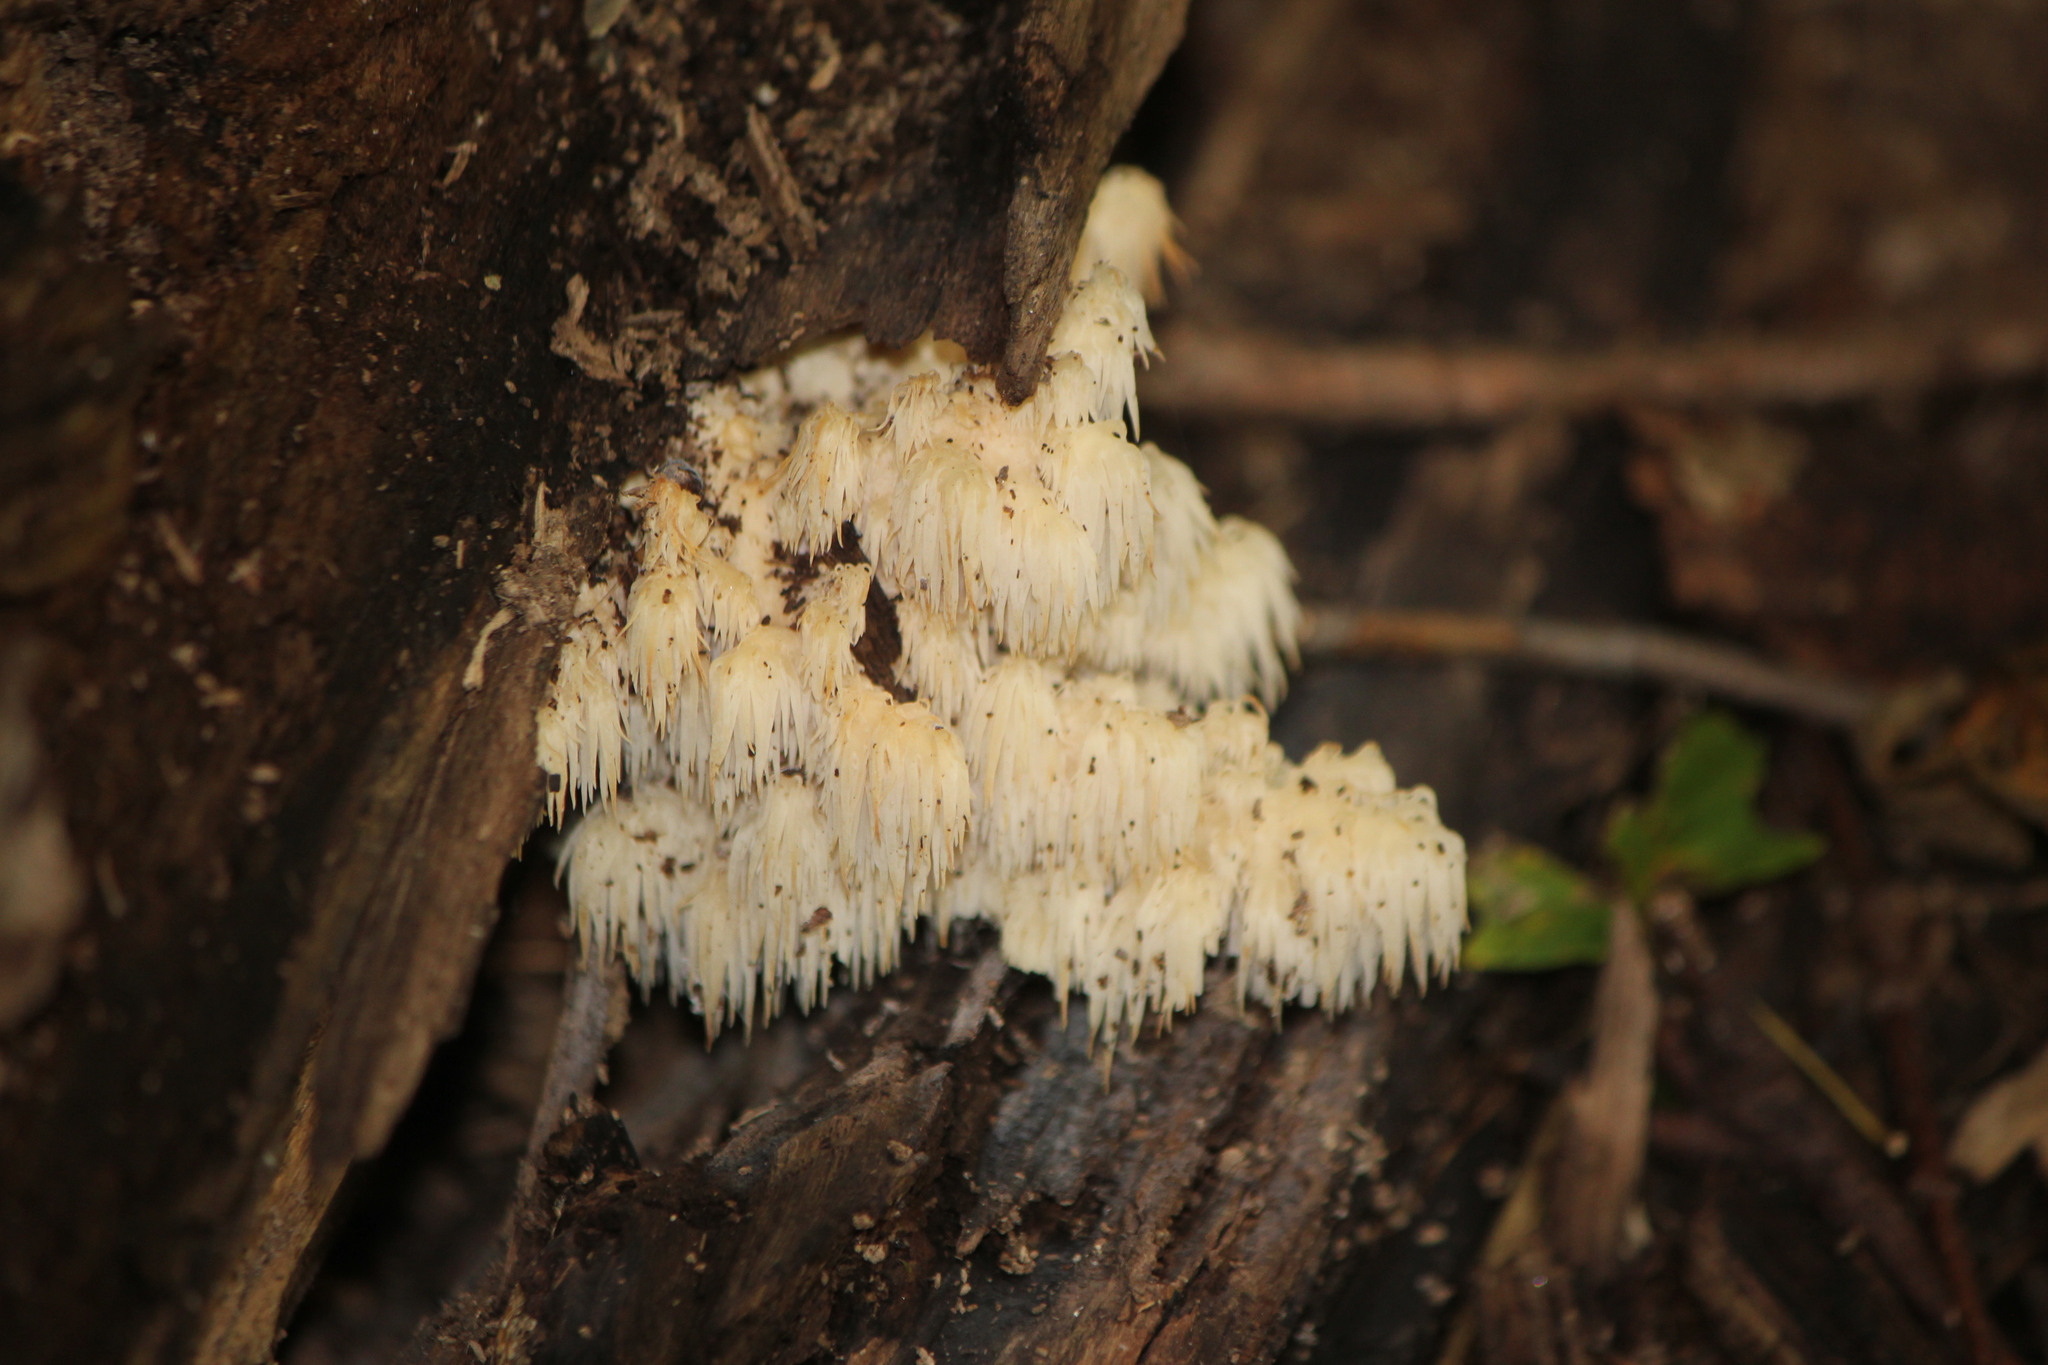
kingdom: Fungi
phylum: Basidiomycota
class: Agaricomycetes
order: Russulales
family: Hericiaceae
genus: Hericium
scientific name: Hericium americanum
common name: Bear's head tooth
